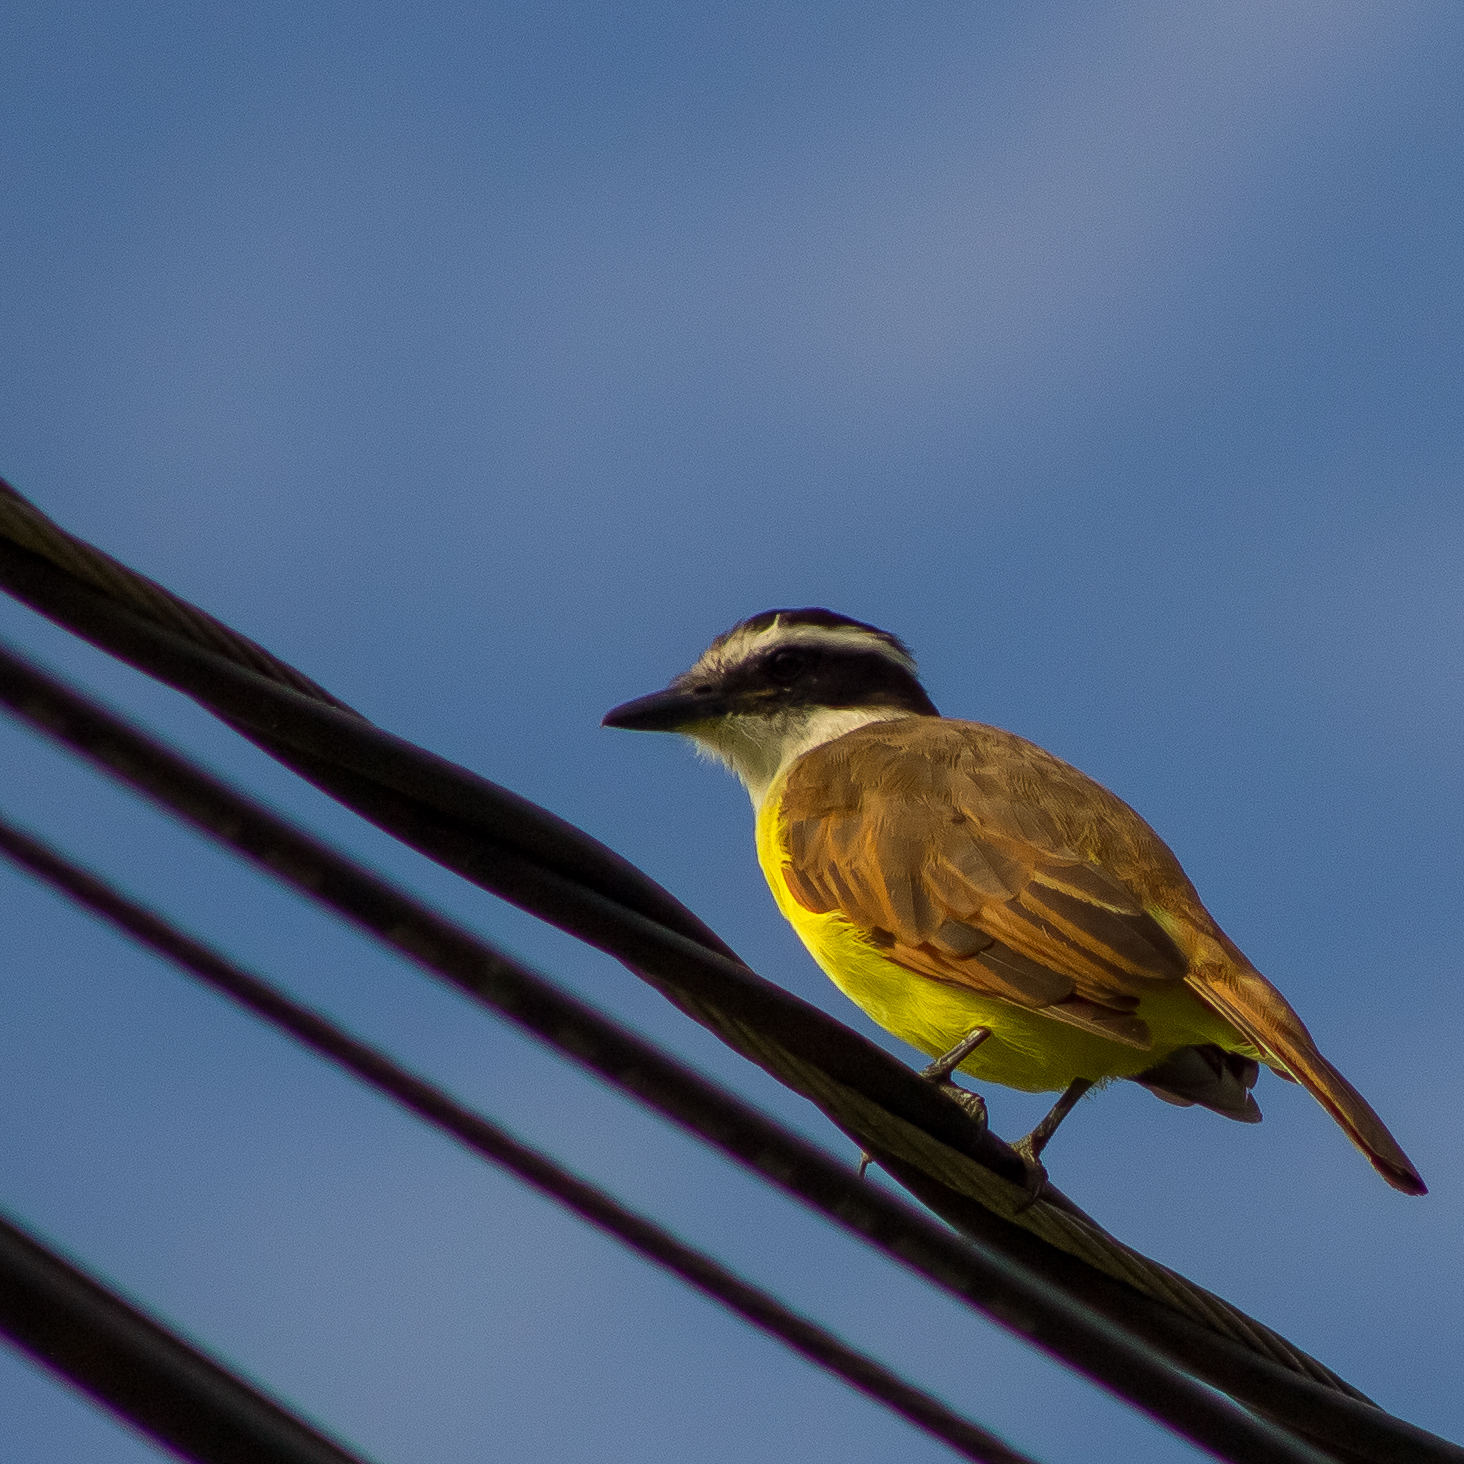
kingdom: Animalia
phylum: Chordata
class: Aves
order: Passeriformes
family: Tyrannidae
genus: Pitangus
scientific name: Pitangus sulphuratus
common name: Great kiskadee
